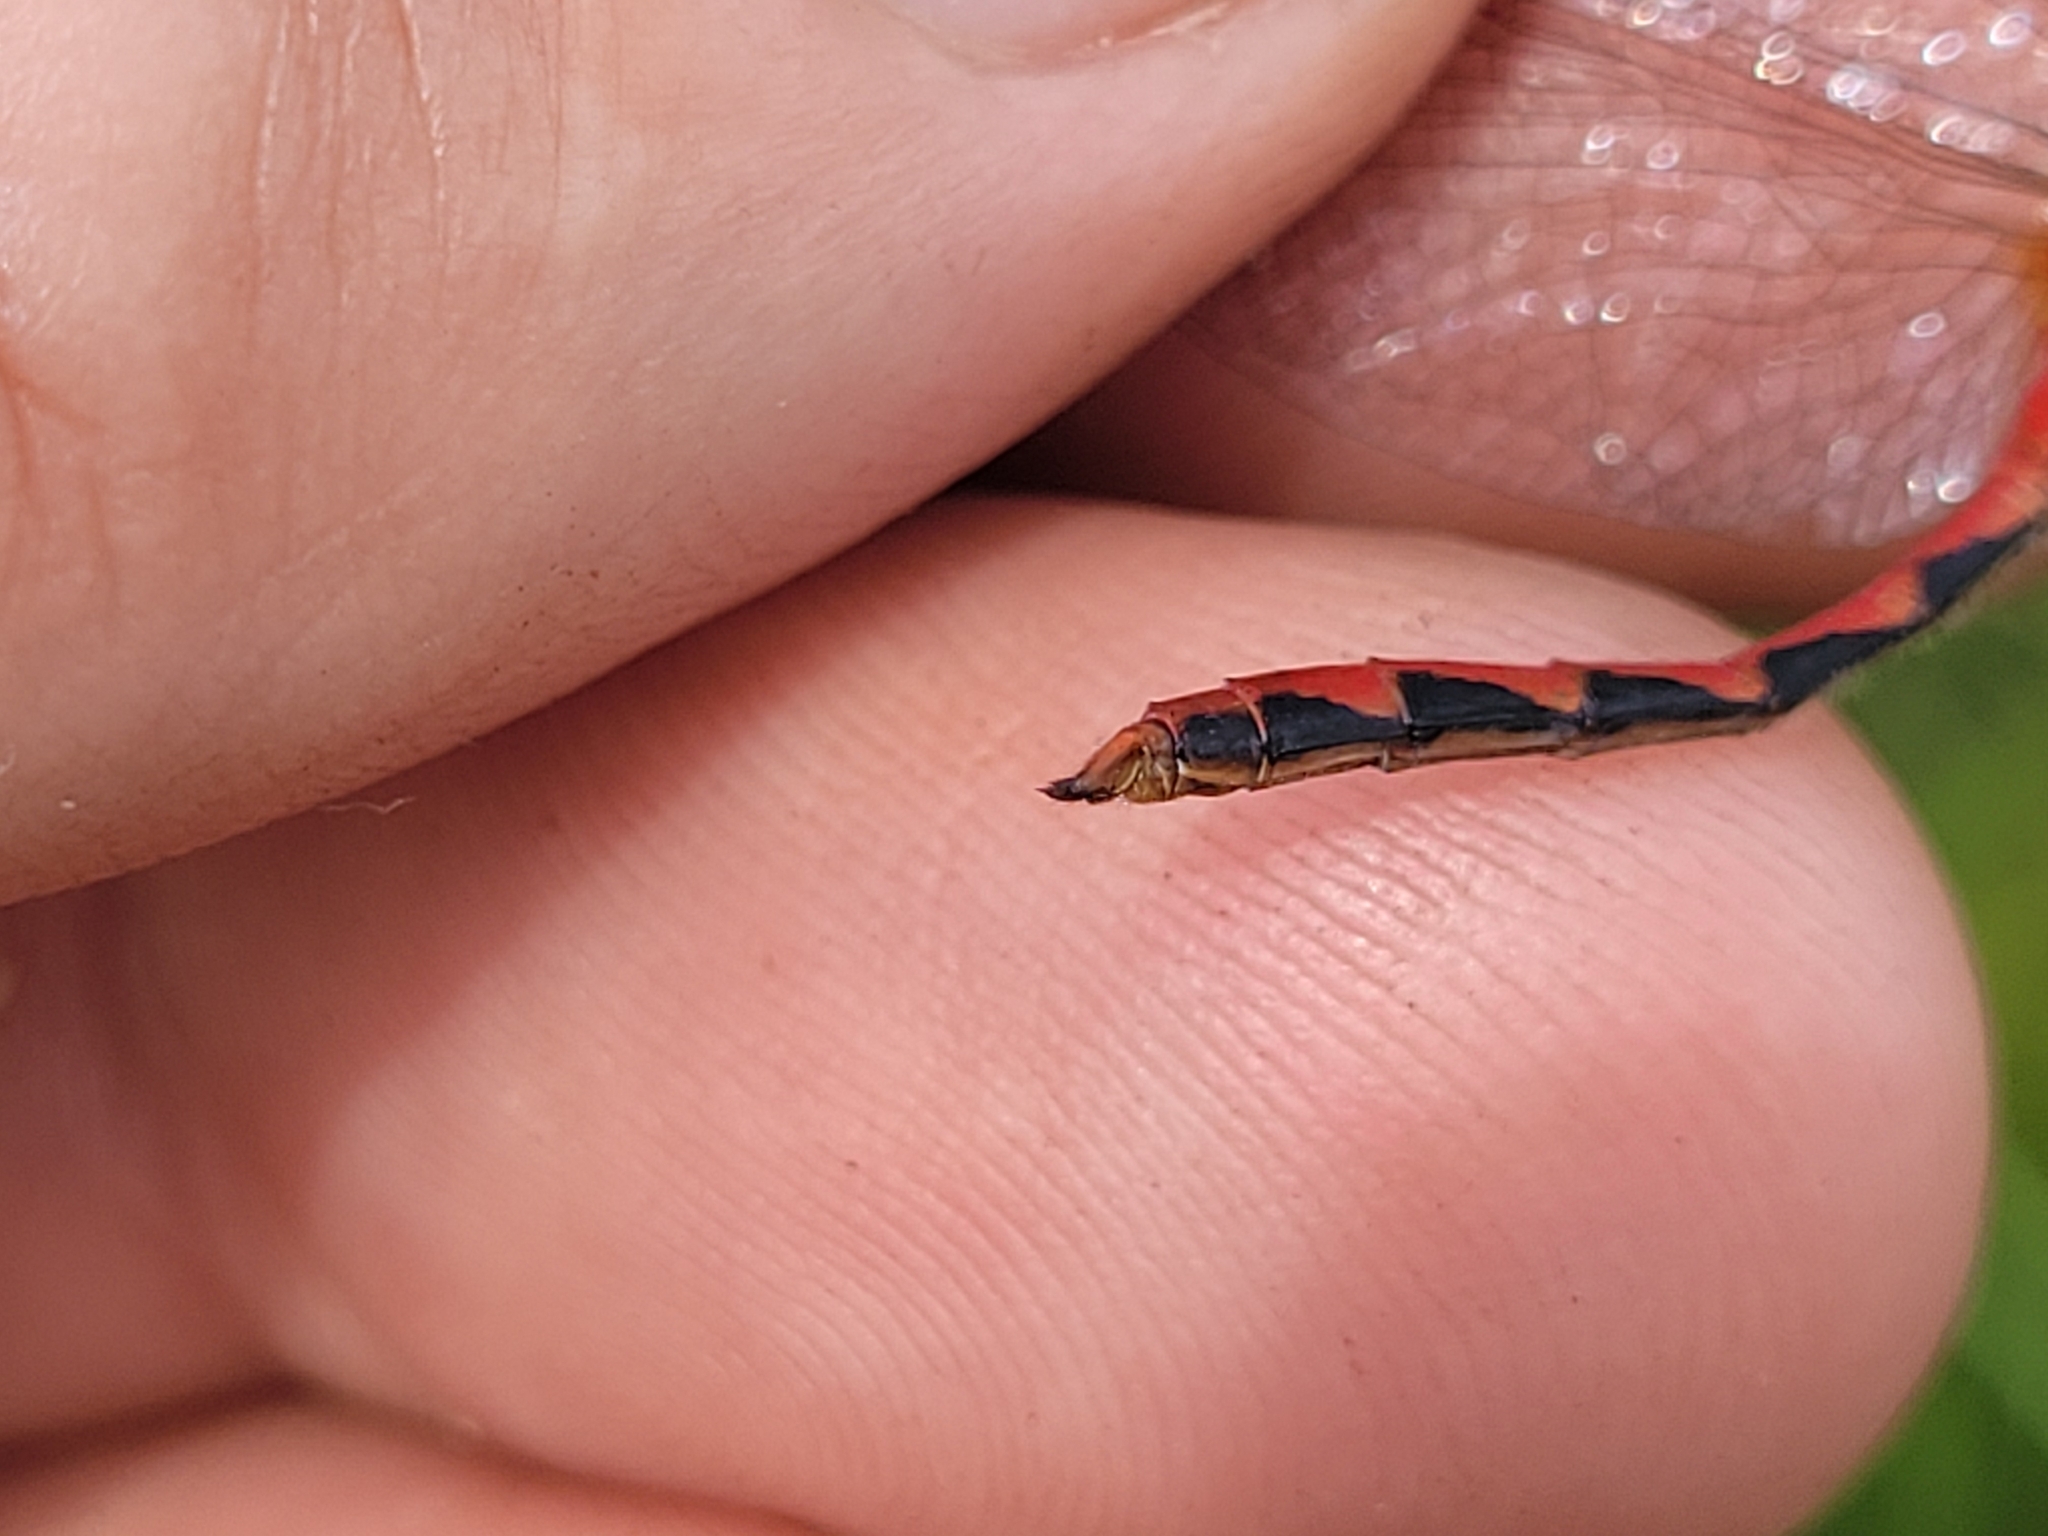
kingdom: Animalia
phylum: Arthropoda
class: Insecta
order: Odonata
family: Libellulidae
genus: Sympetrum
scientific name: Sympetrum obtrusum
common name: White-faced meadowhawk
